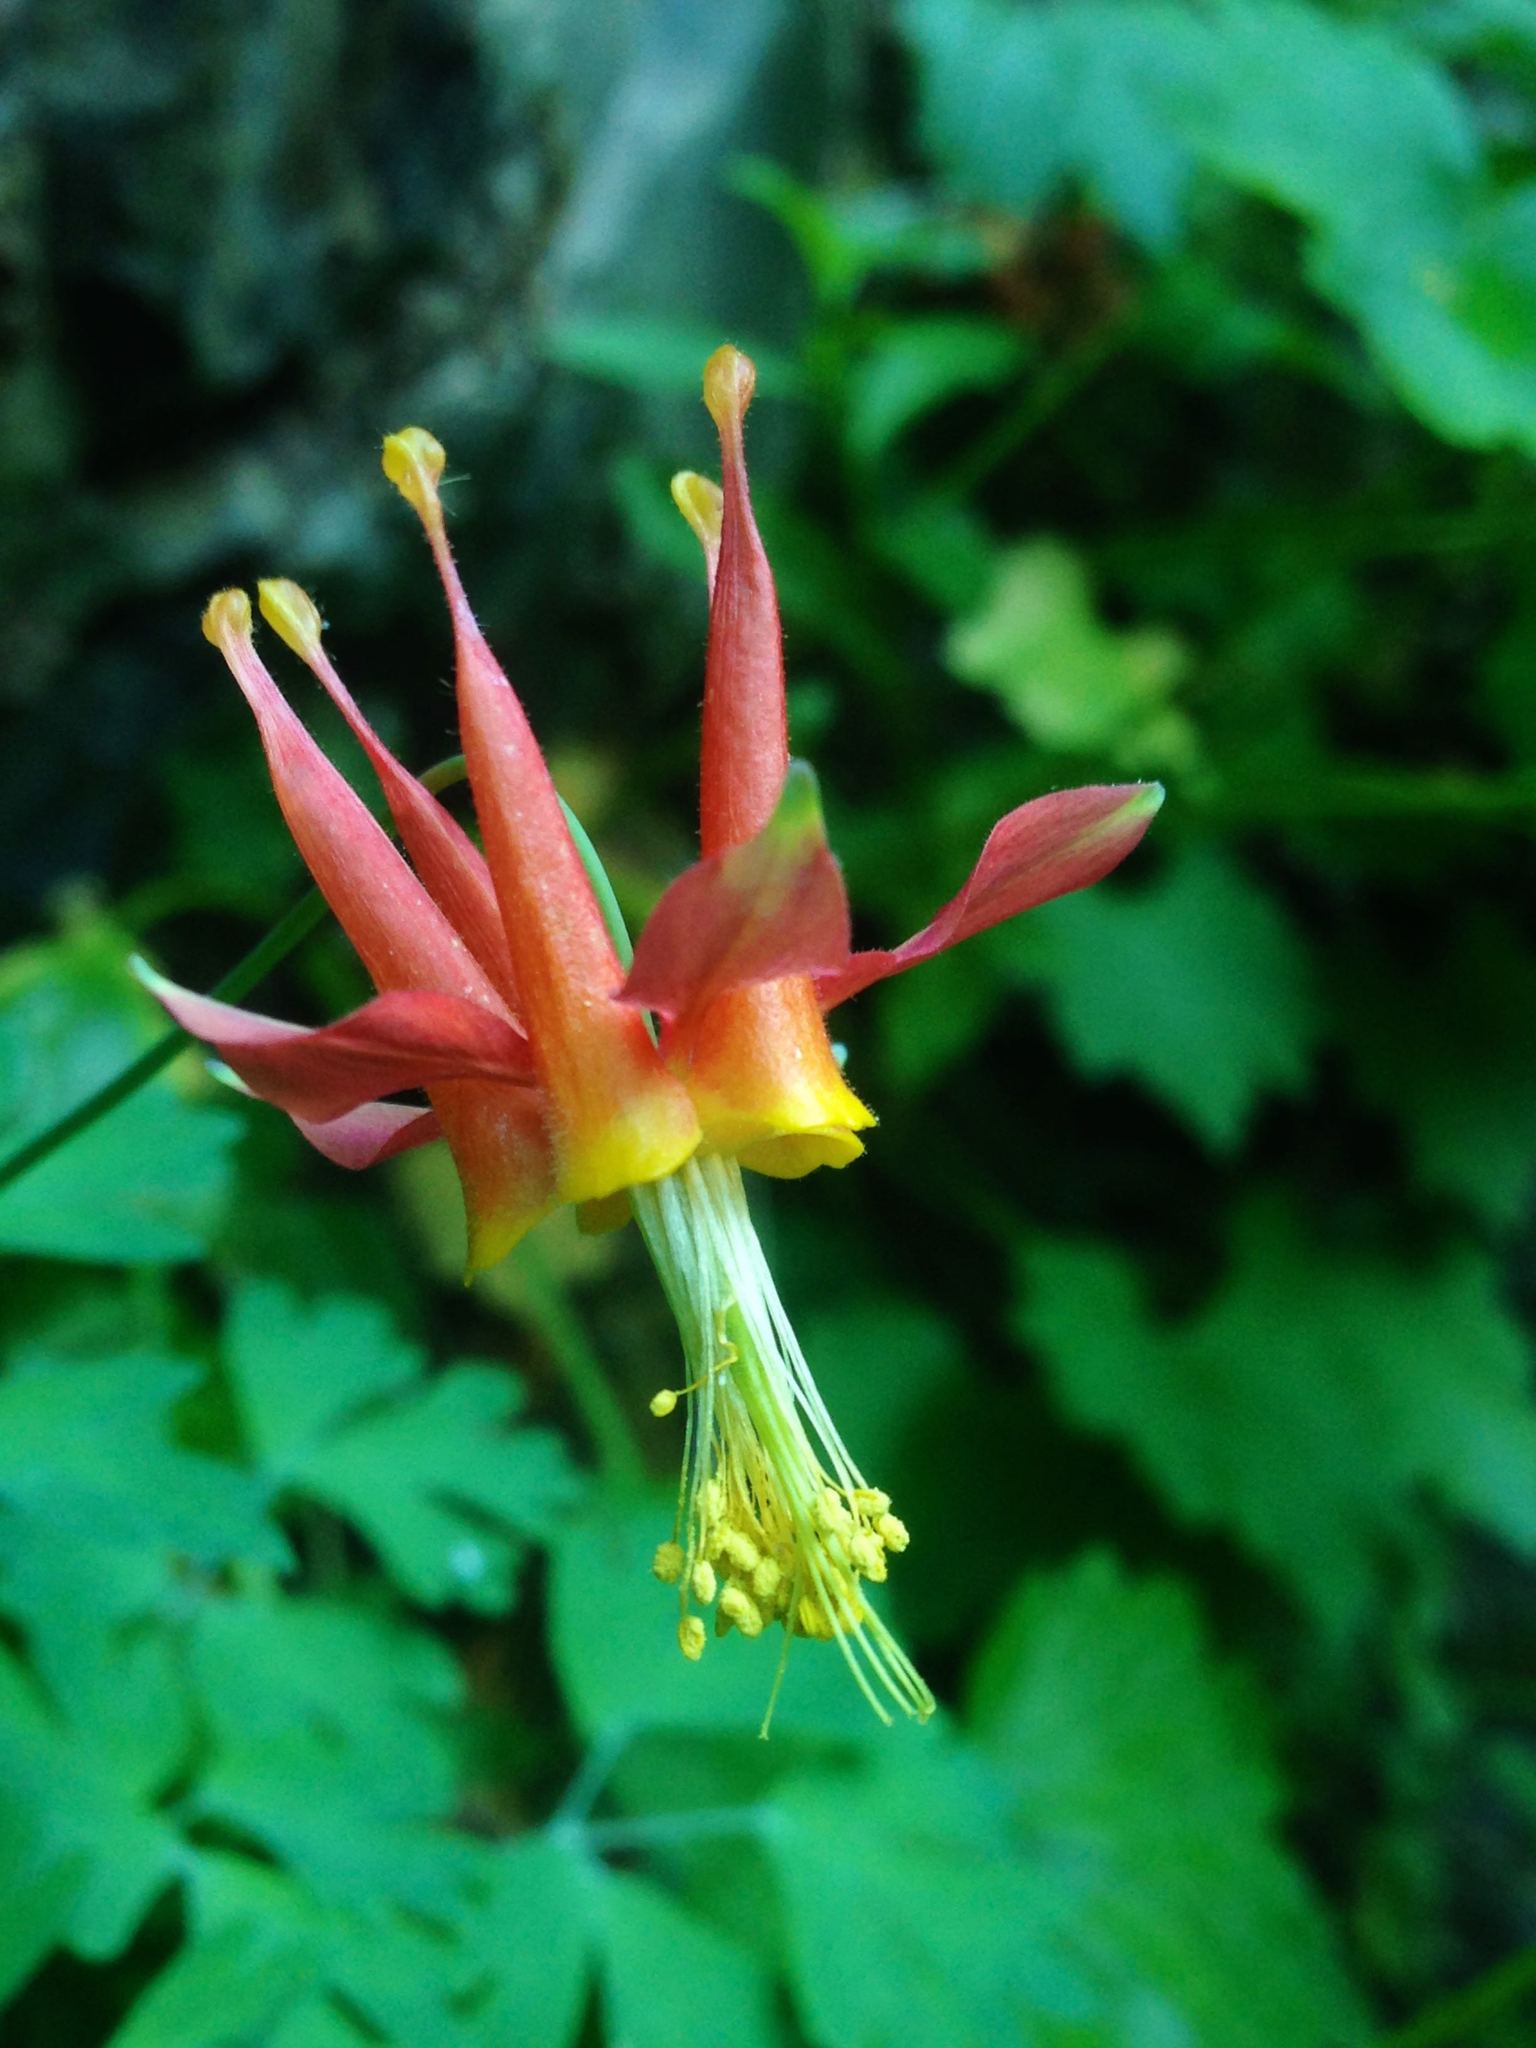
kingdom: Plantae
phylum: Tracheophyta
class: Magnoliopsida
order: Ranunculales
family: Ranunculaceae
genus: Aquilegia
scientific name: Aquilegia formosa
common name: Sitka columbine
